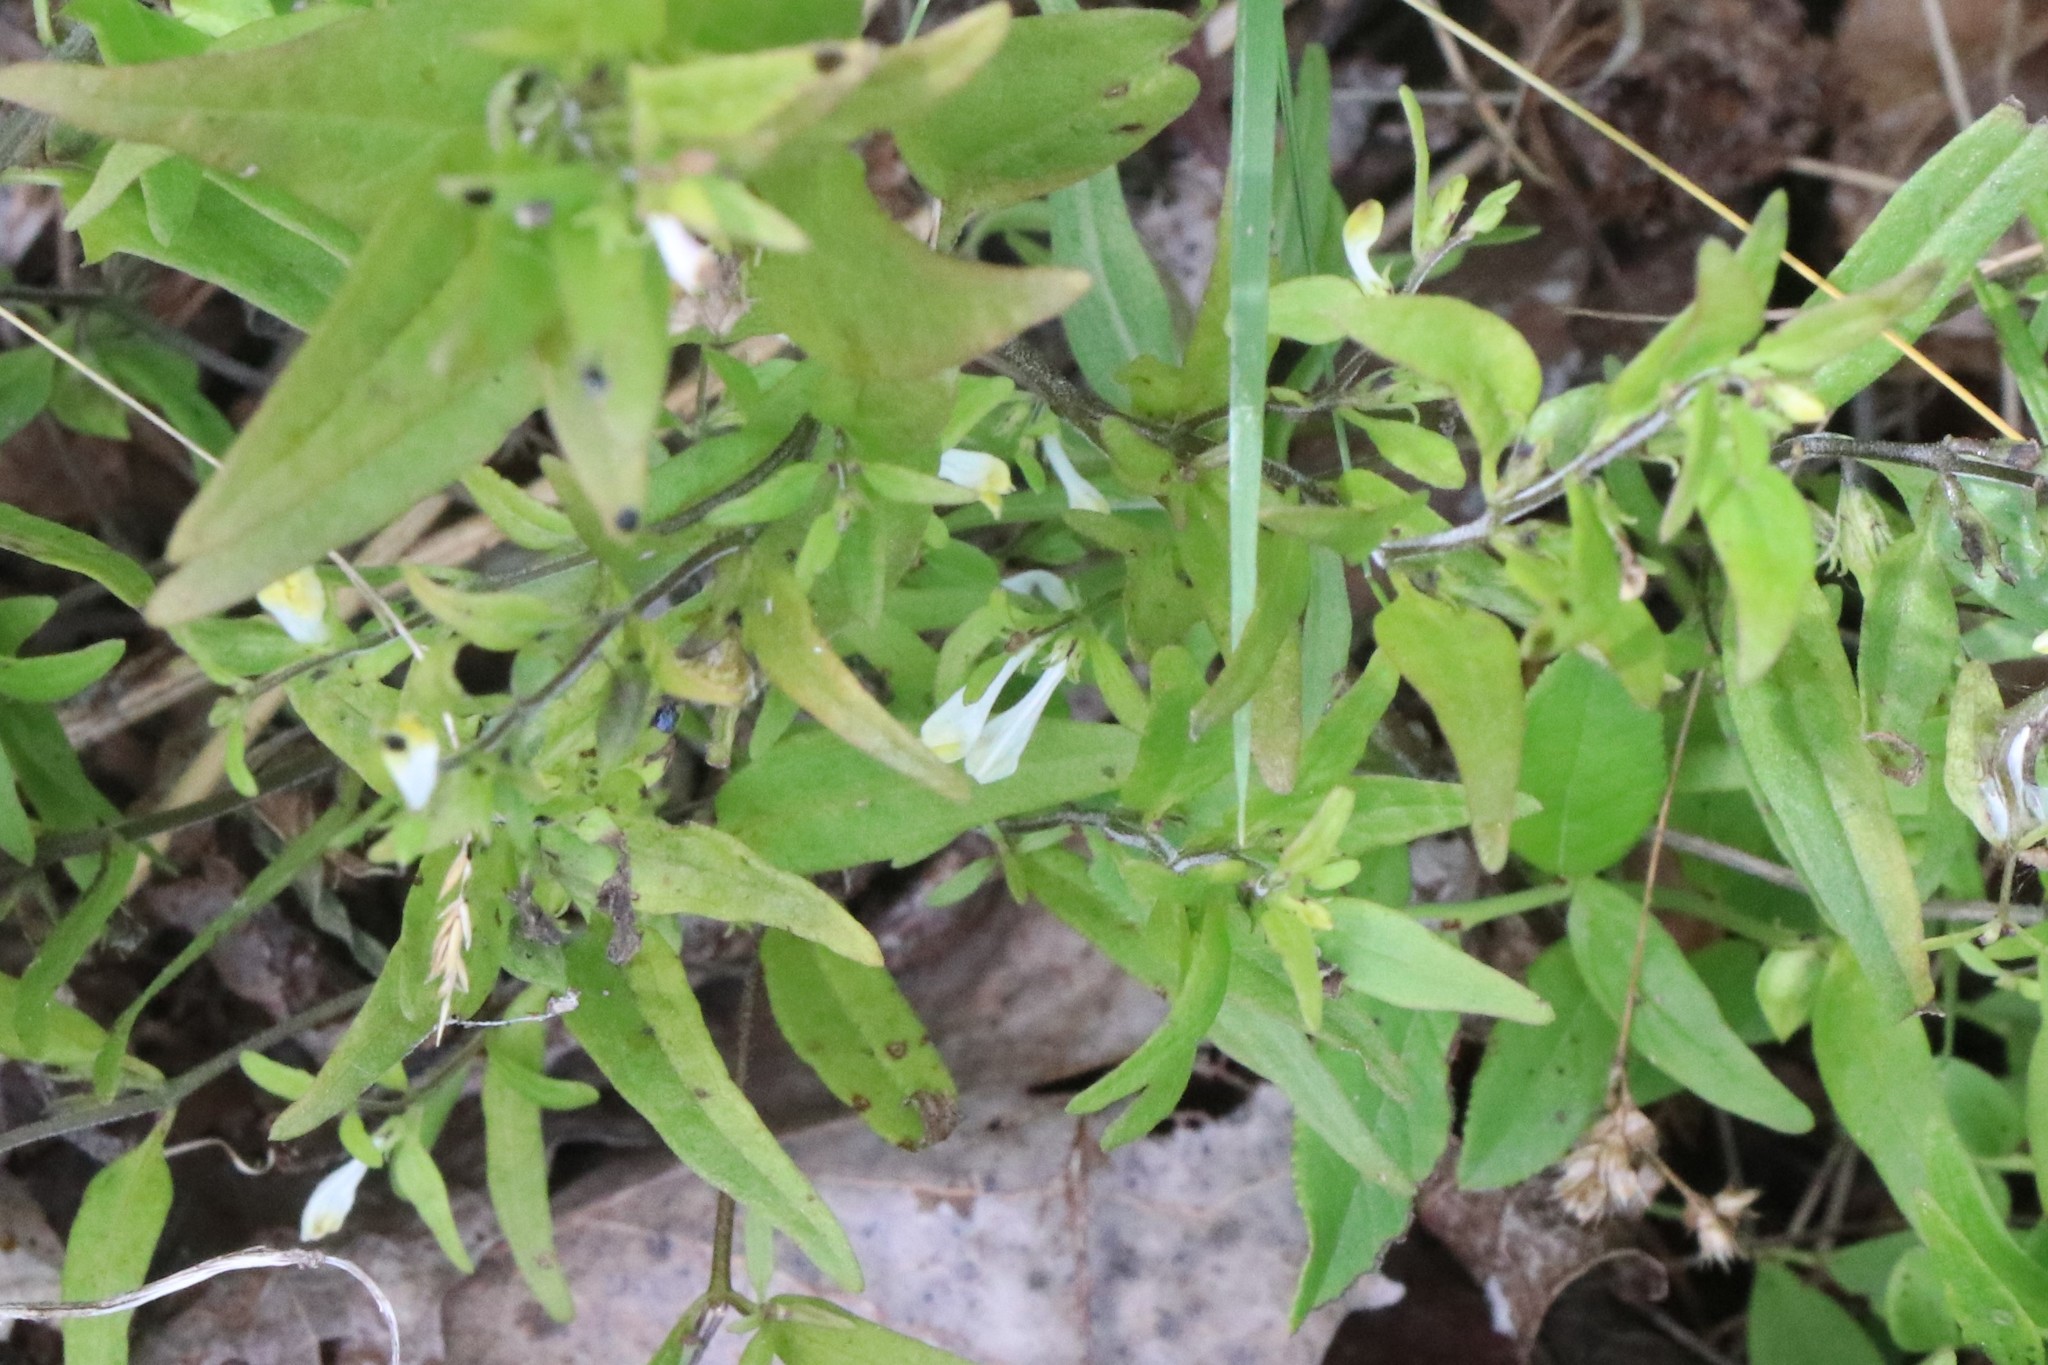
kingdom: Plantae
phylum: Tracheophyta
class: Magnoliopsida
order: Lamiales
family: Orobanchaceae
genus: Melampyrum
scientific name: Melampyrum lineare
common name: American cow-wheat
